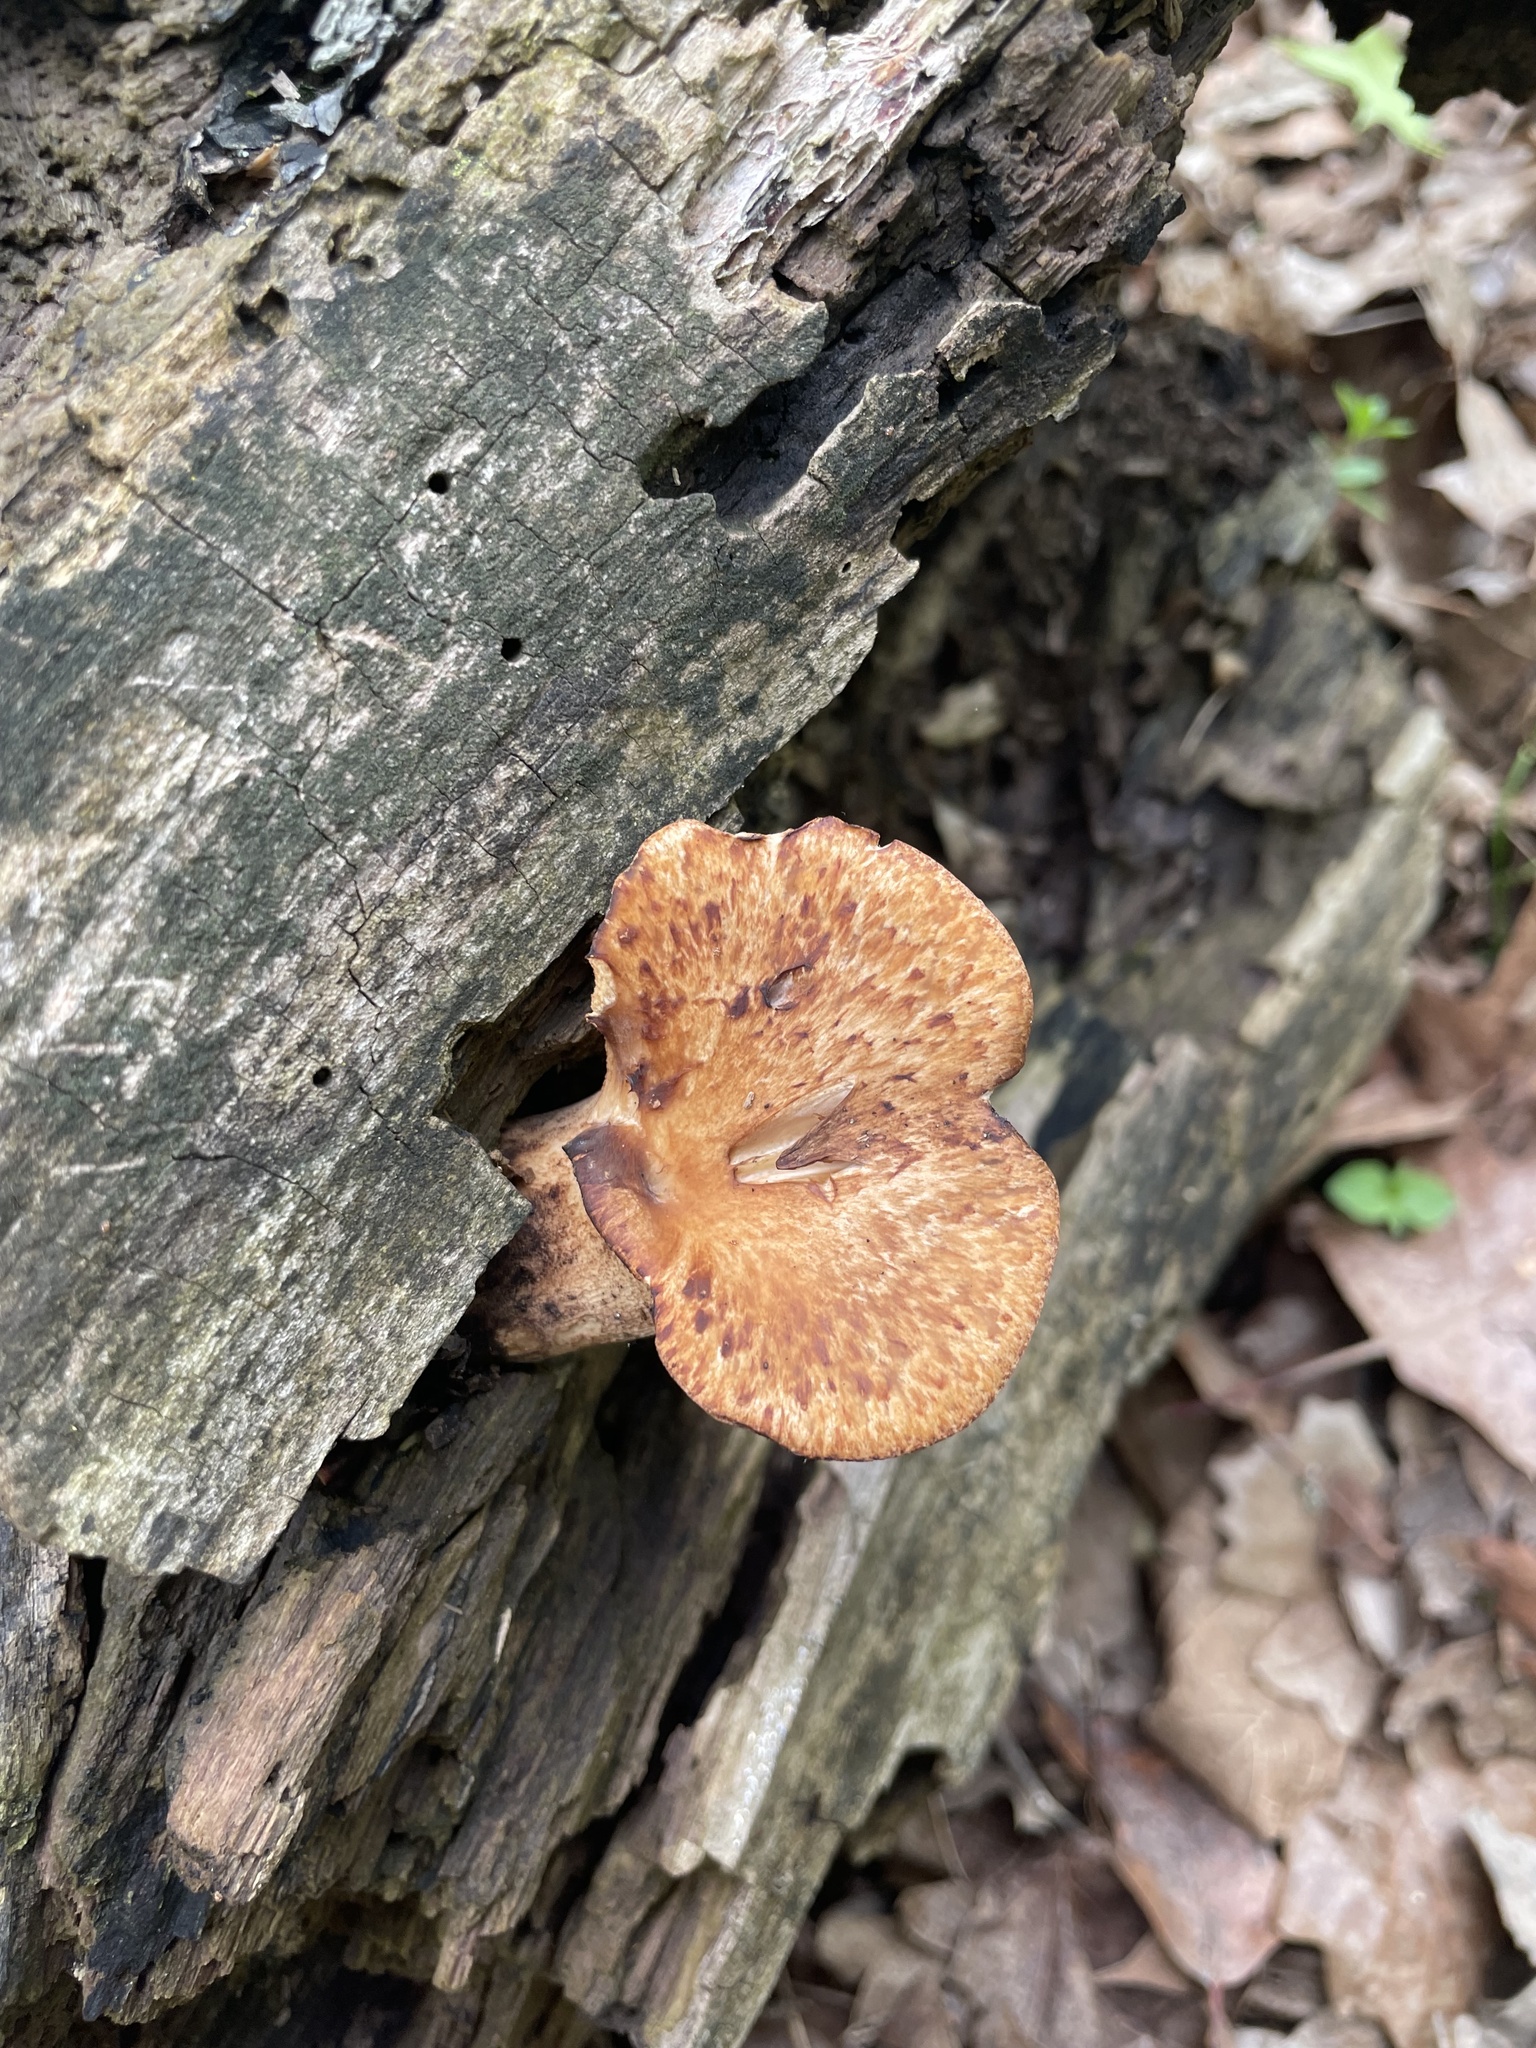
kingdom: Fungi
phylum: Basidiomycota
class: Agaricomycetes
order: Polyporales
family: Polyporaceae
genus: Cerioporus
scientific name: Cerioporus squamosus
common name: Dryad's saddle
